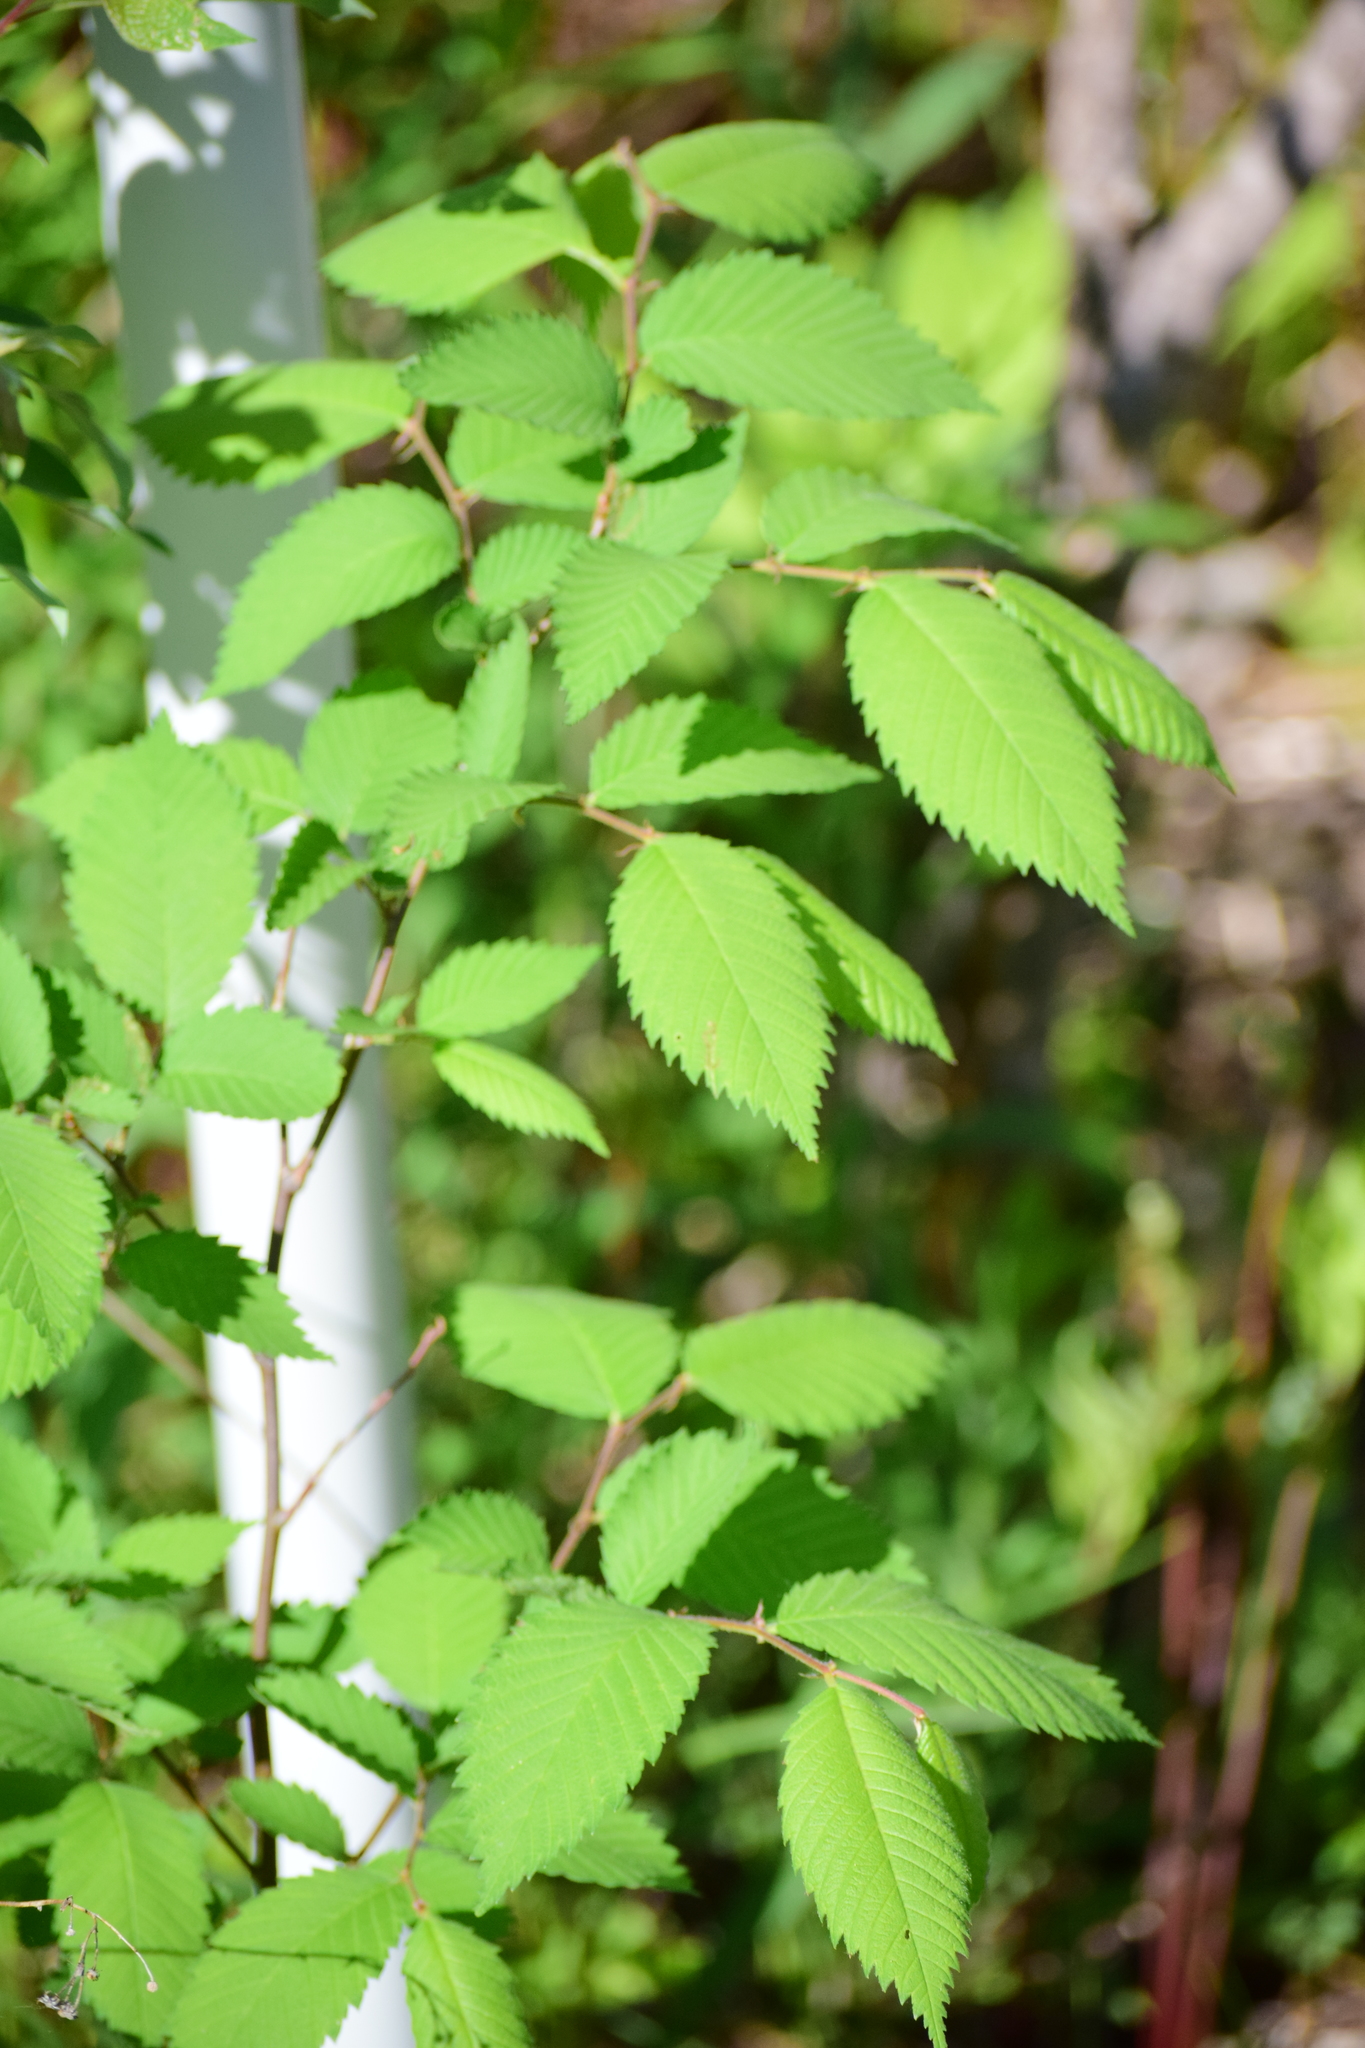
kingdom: Plantae
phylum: Tracheophyta
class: Magnoliopsida
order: Rosales
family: Ulmaceae
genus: Ulmus
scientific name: Ulmus americana
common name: American elm
